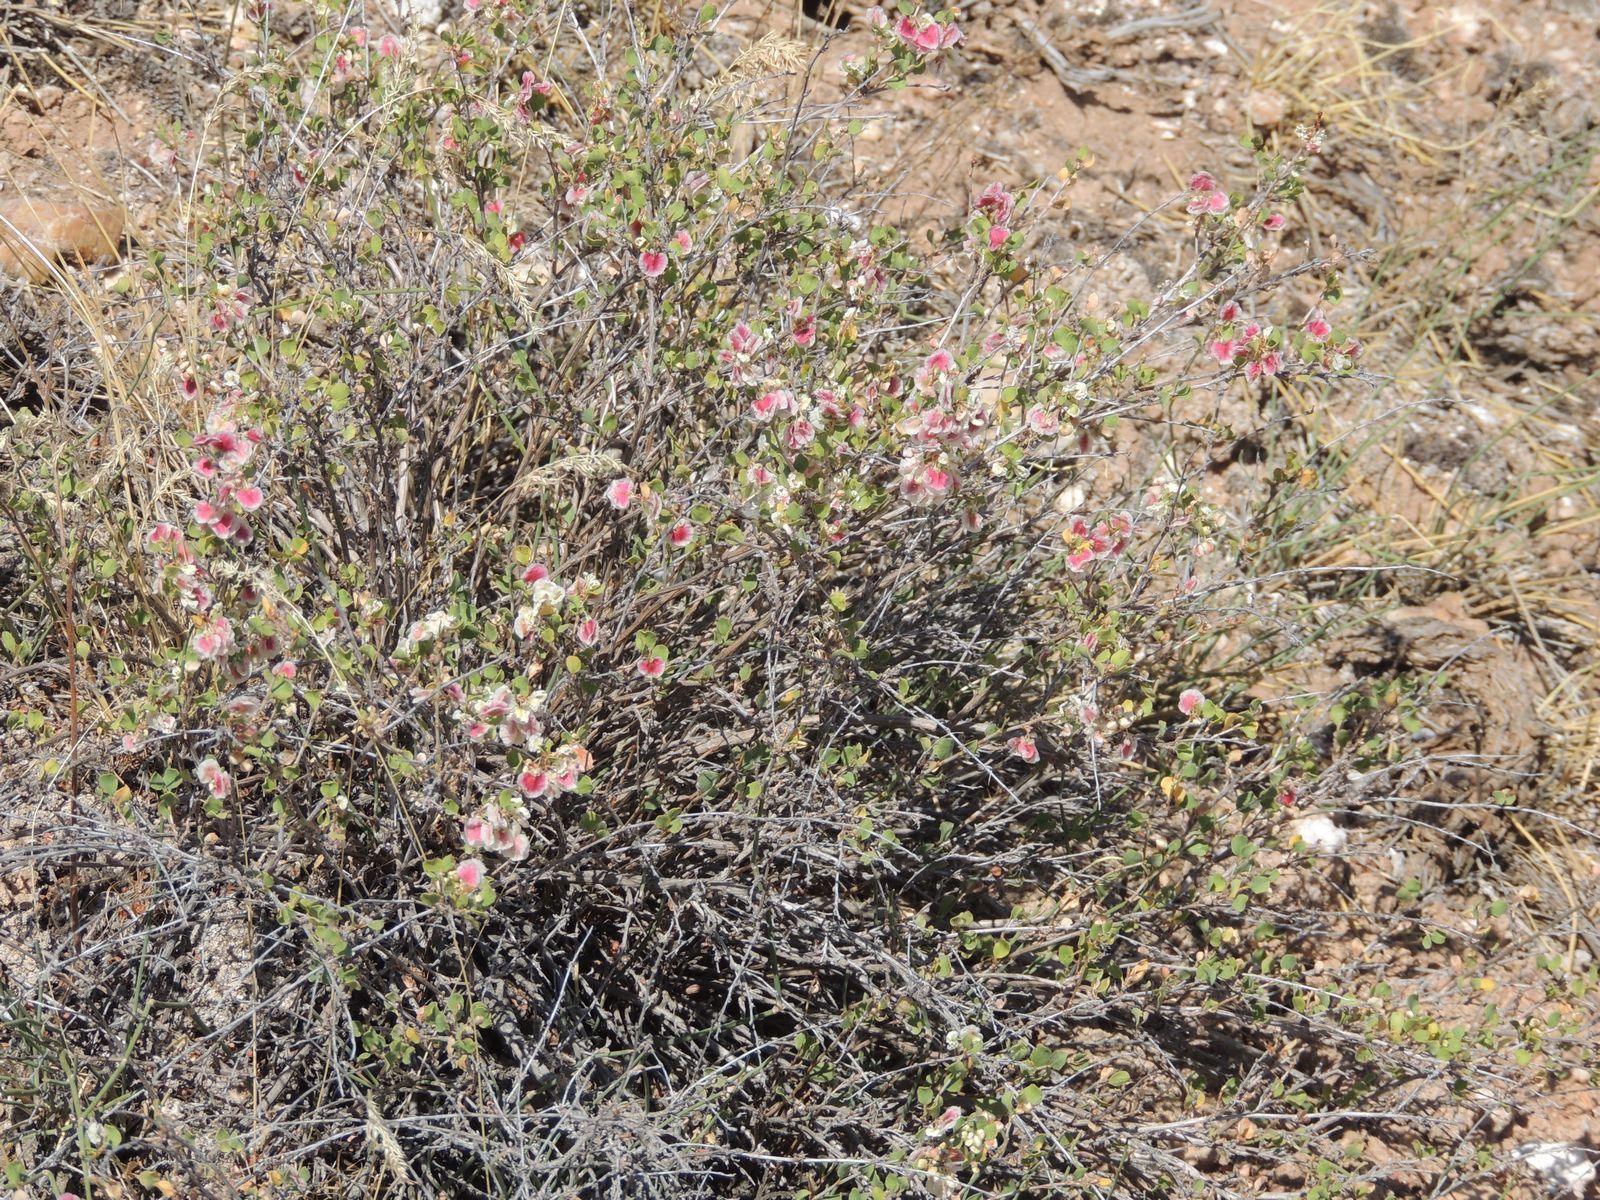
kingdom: Plantae
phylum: Tracheophyta
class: Magnoliopsida
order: Caryophyllales
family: Polygonaceae
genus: Atraphaxis
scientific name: Atraphaxis replicata
